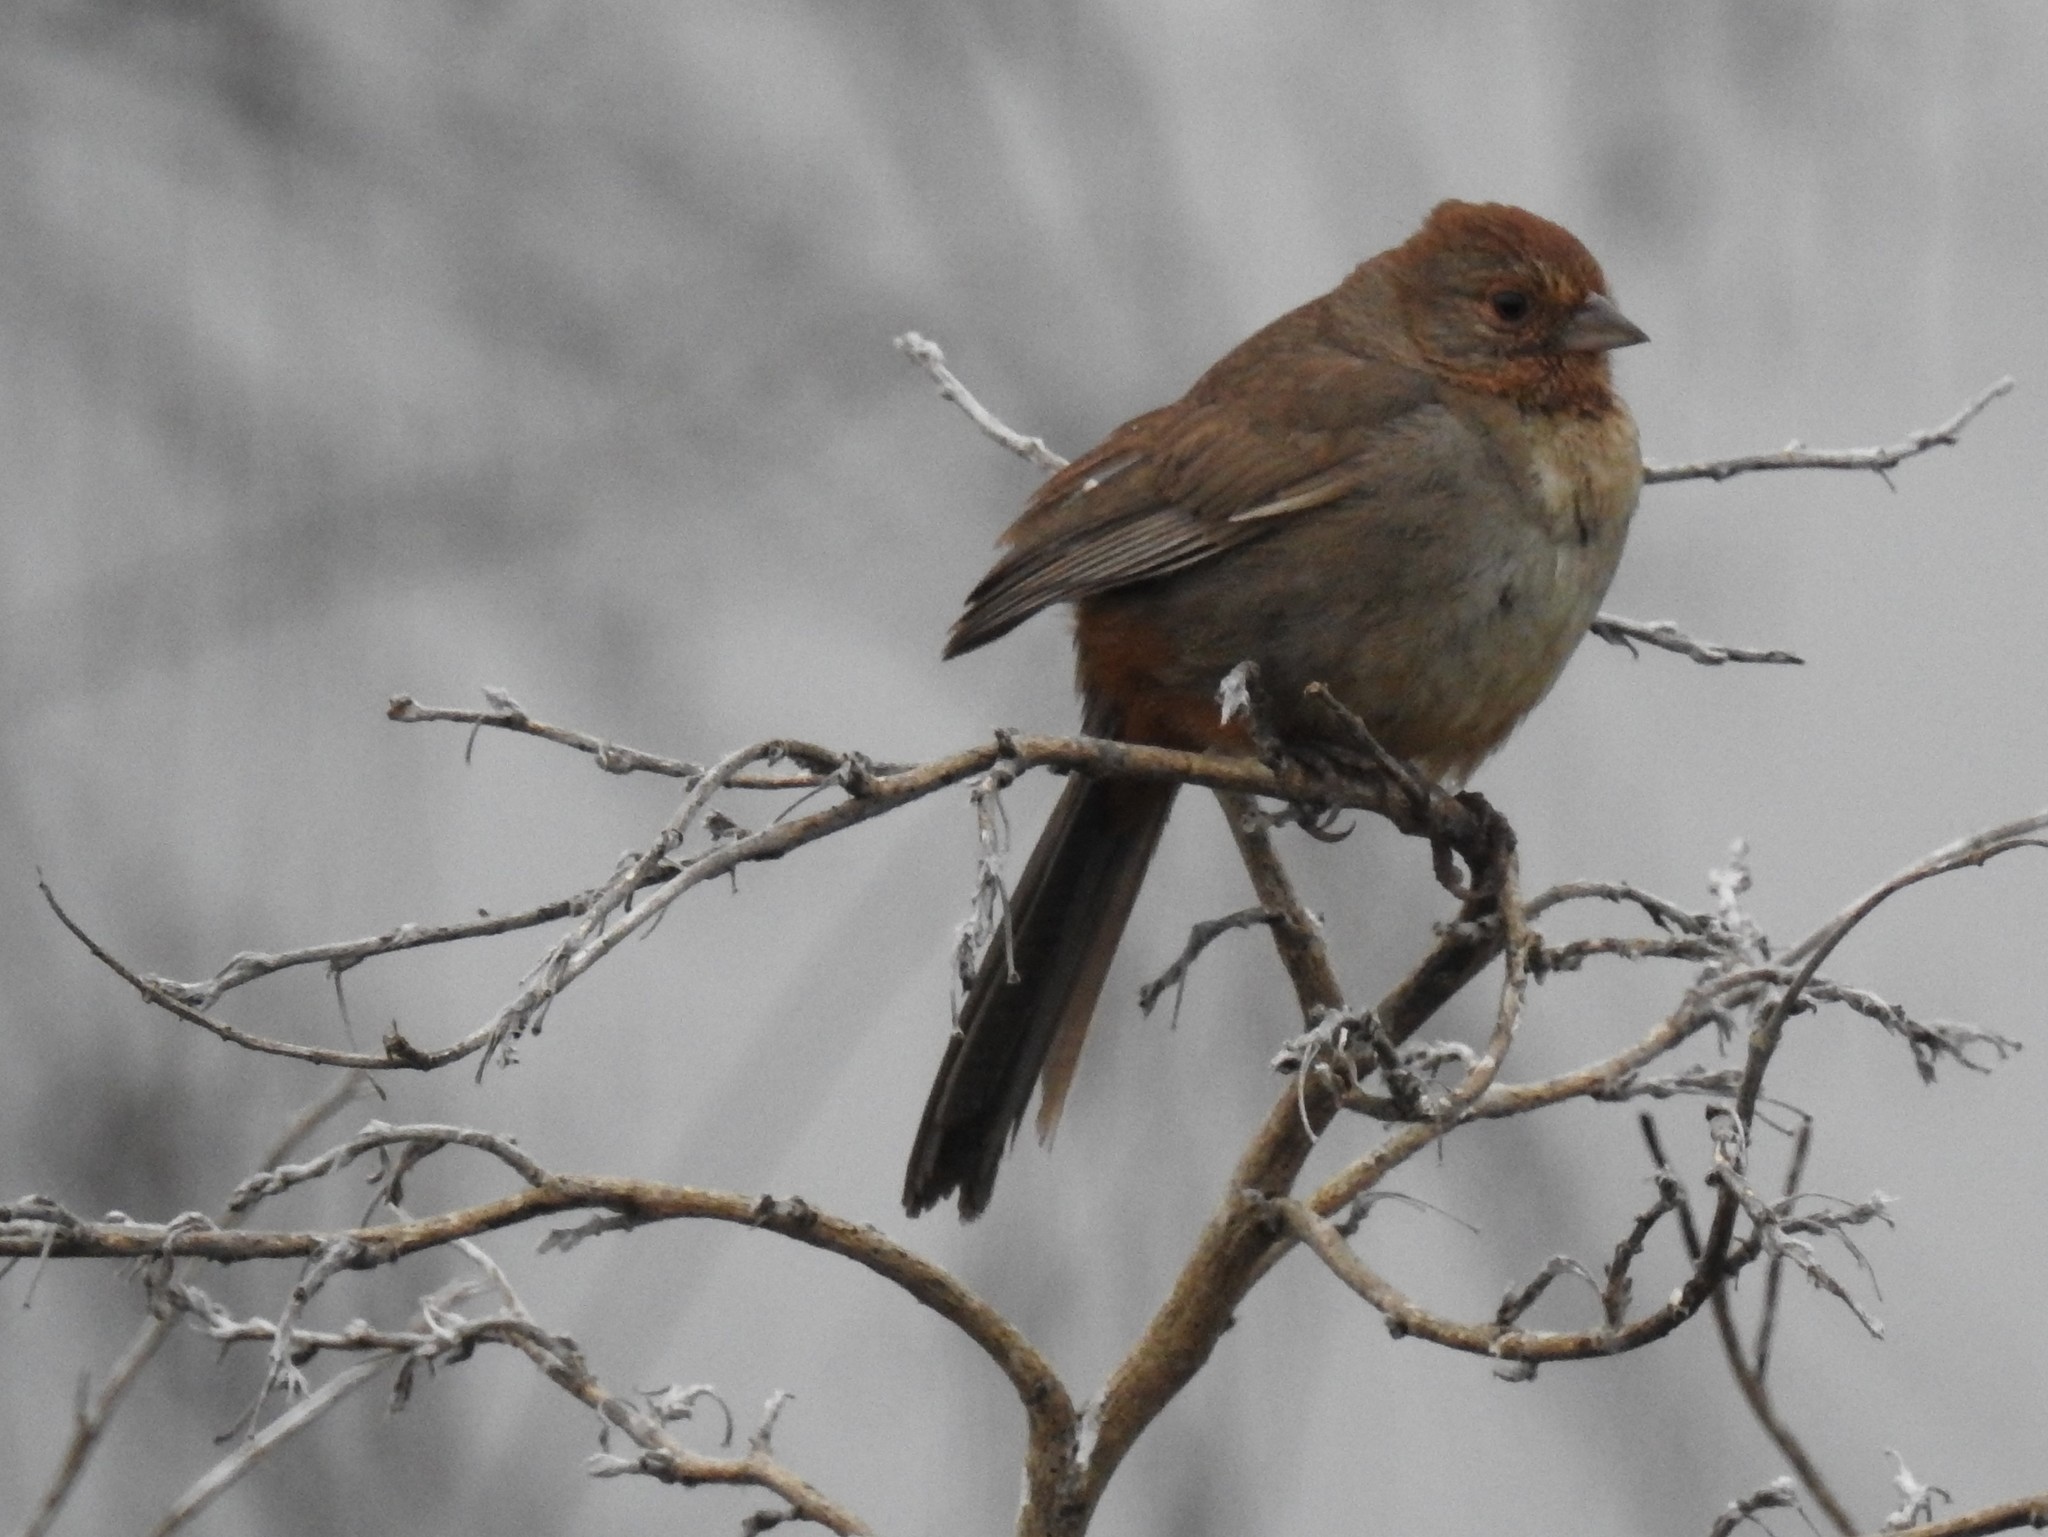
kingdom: Animalia
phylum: Chordata
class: Aves
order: Passeriformes
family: Passerellidae
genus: Melozone
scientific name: Melozone crissalis
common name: California towhee
